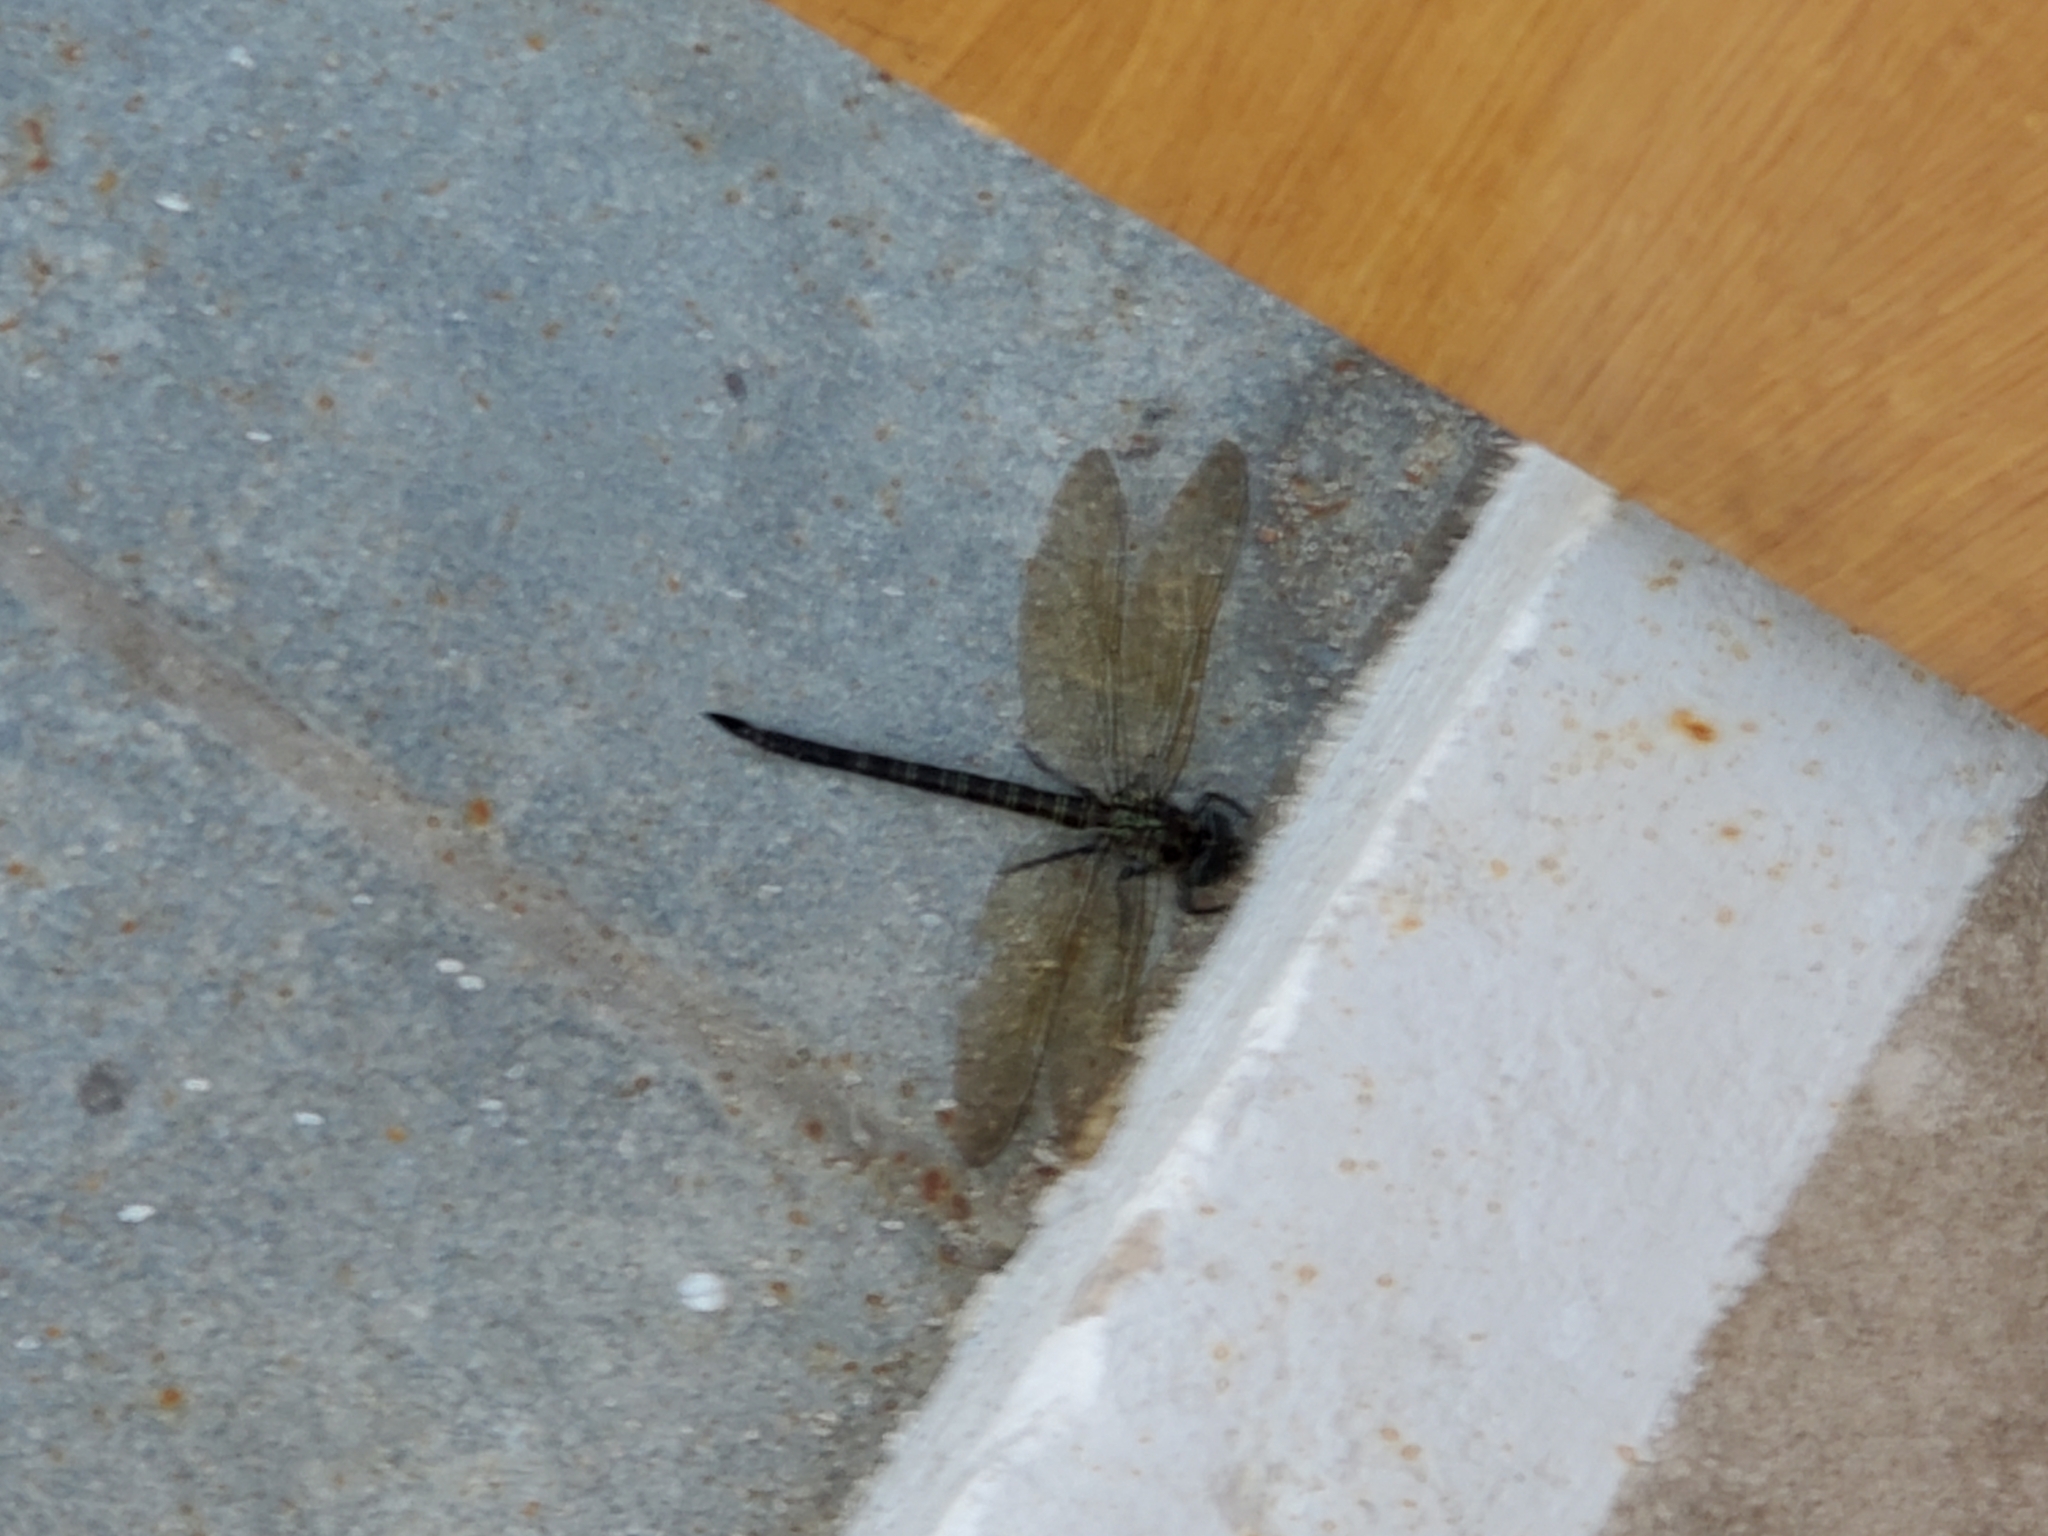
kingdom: Animalia
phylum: Arthropoda
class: Insecta
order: Odonata
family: Aeshnidae
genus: Epiaeschna
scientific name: Epiaeschna heros
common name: Swamp darner
